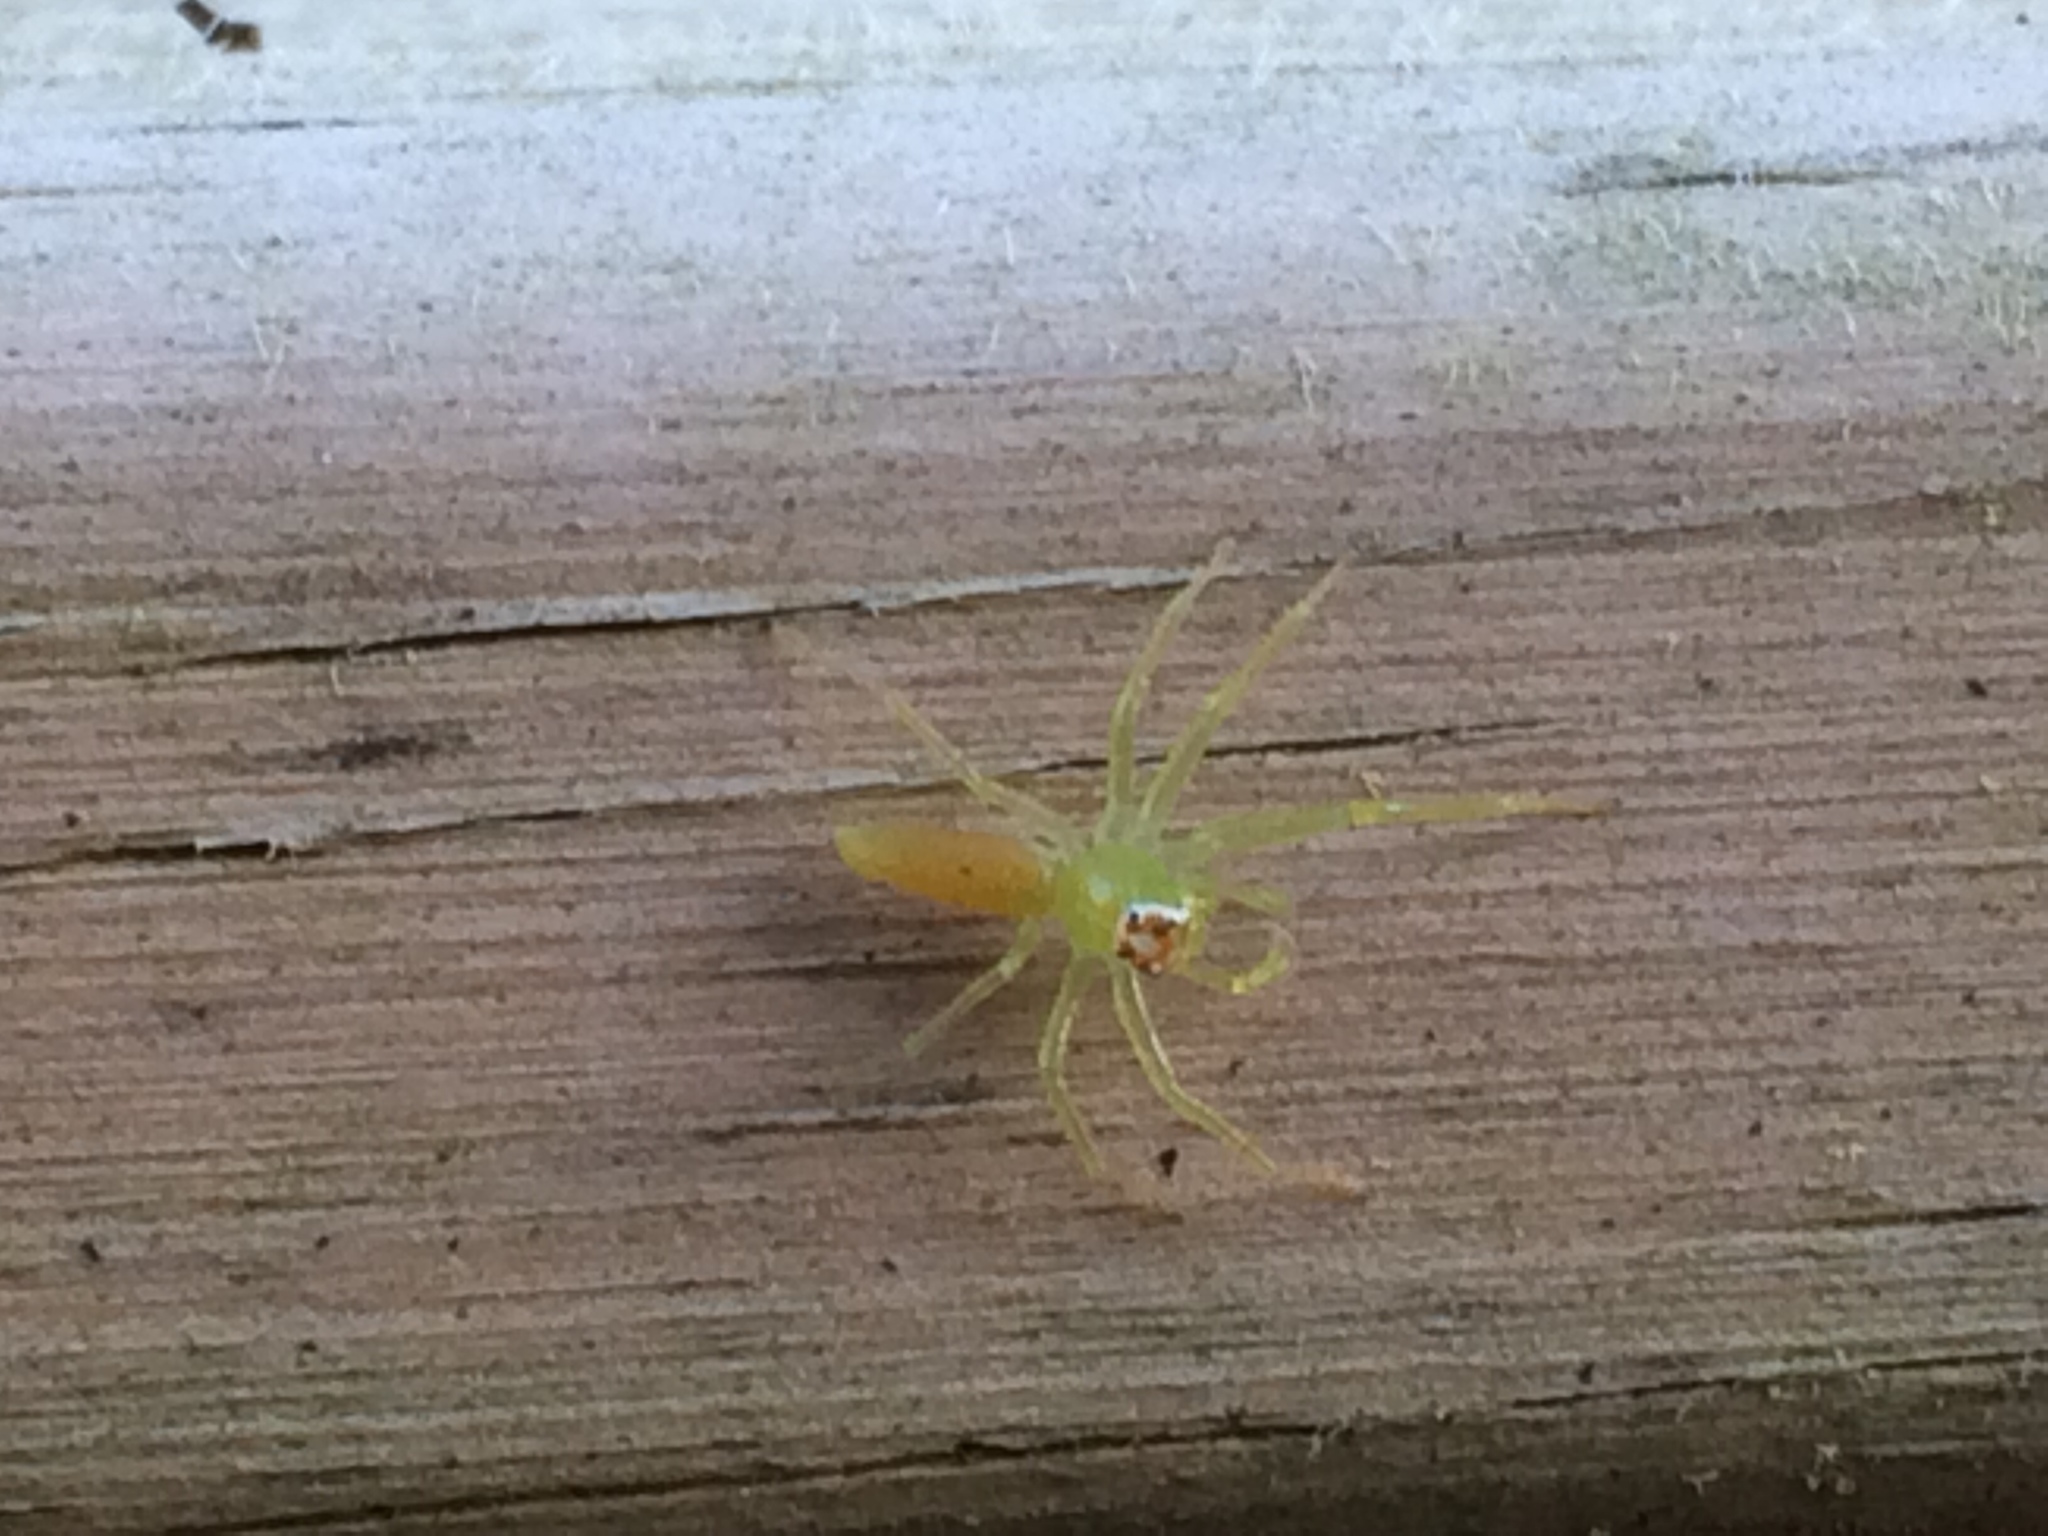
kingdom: Animalia
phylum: Arthropoda
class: Arachnida
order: Araneae
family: Salticidae
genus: Lyssomanes
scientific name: Lyssomanes viridis
